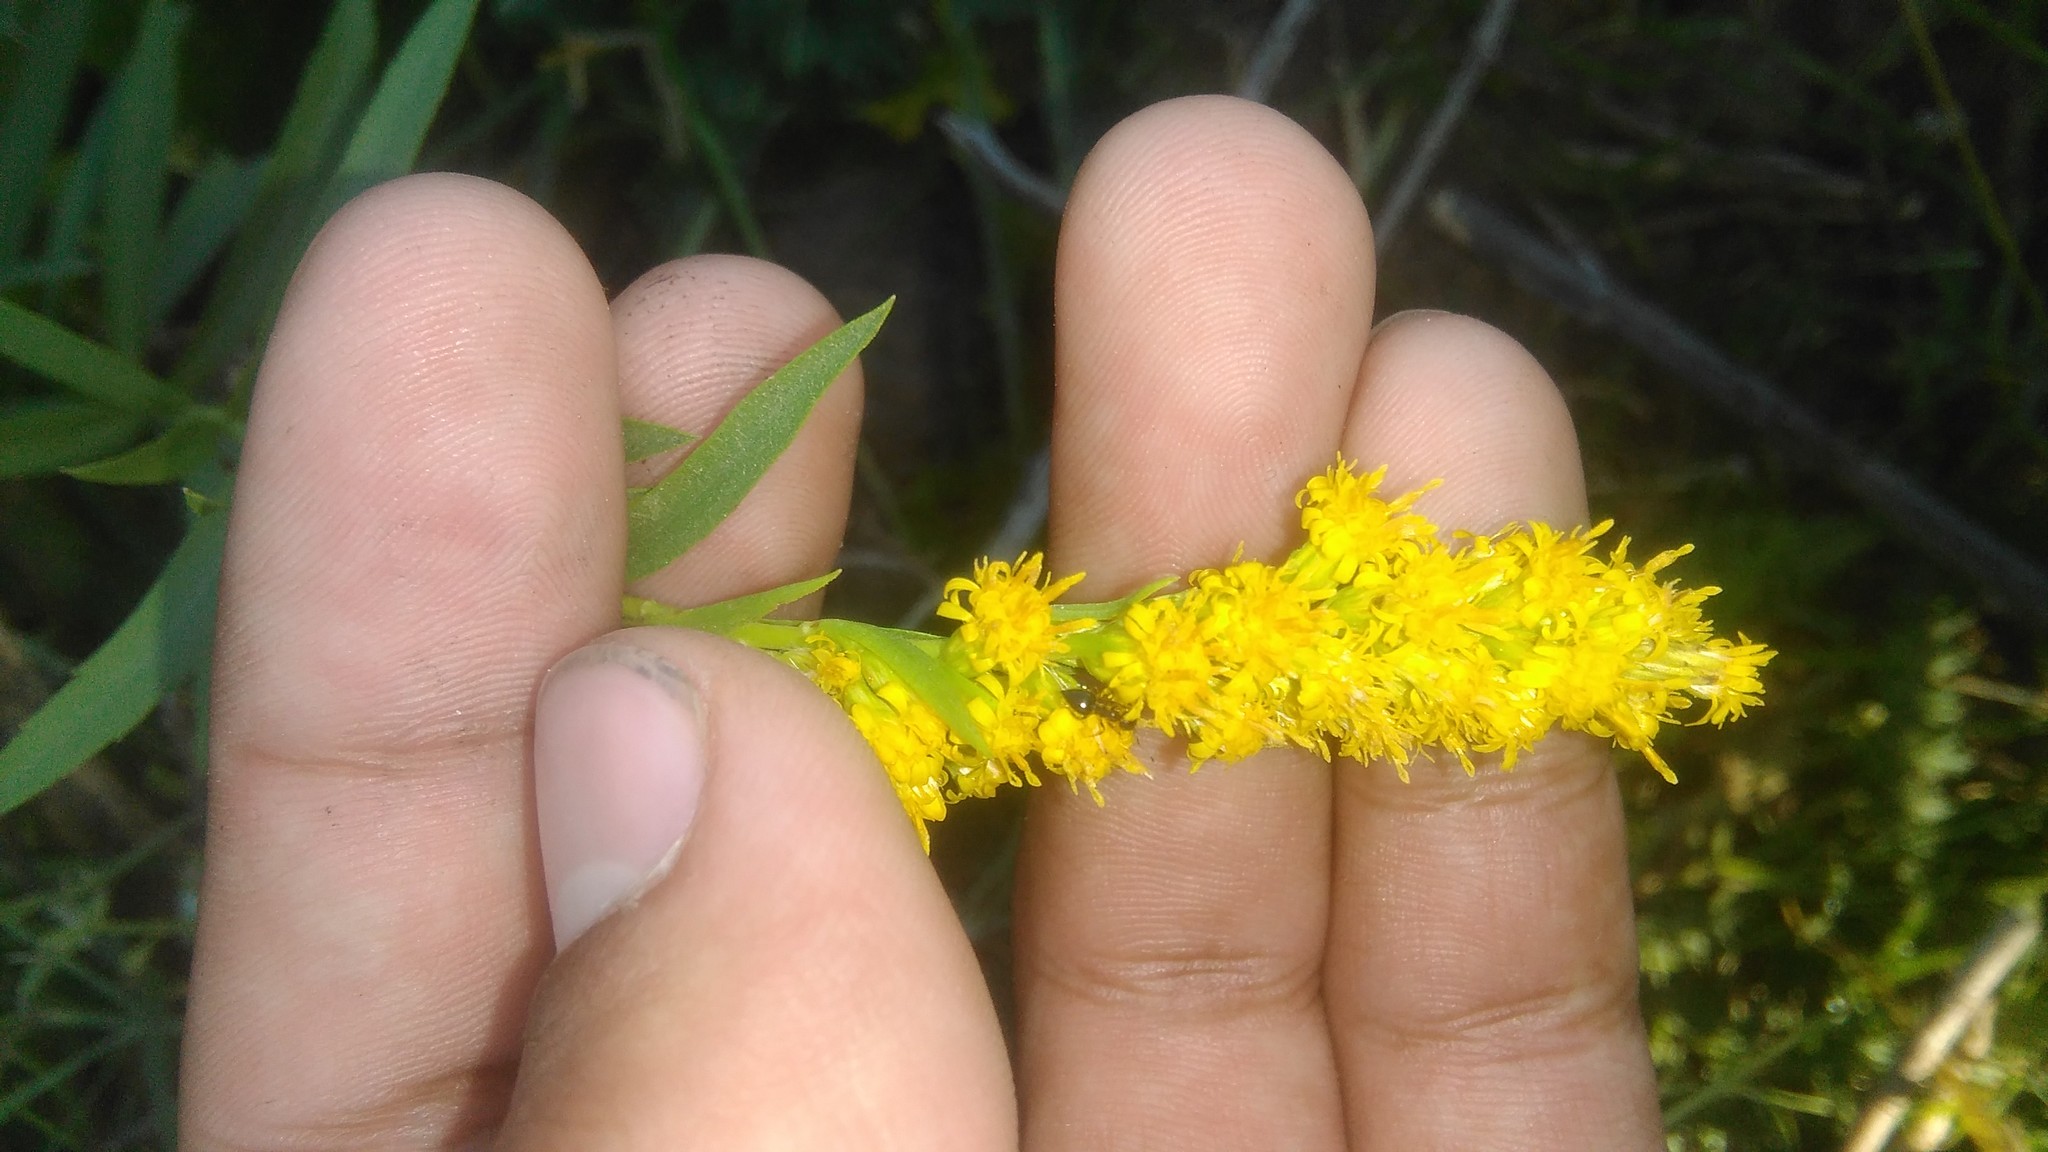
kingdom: Plantae
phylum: Tracheophyta
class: Magnoliopsida
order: Asterales
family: Asteraceae
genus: Solidago
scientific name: Solidago chilensis
